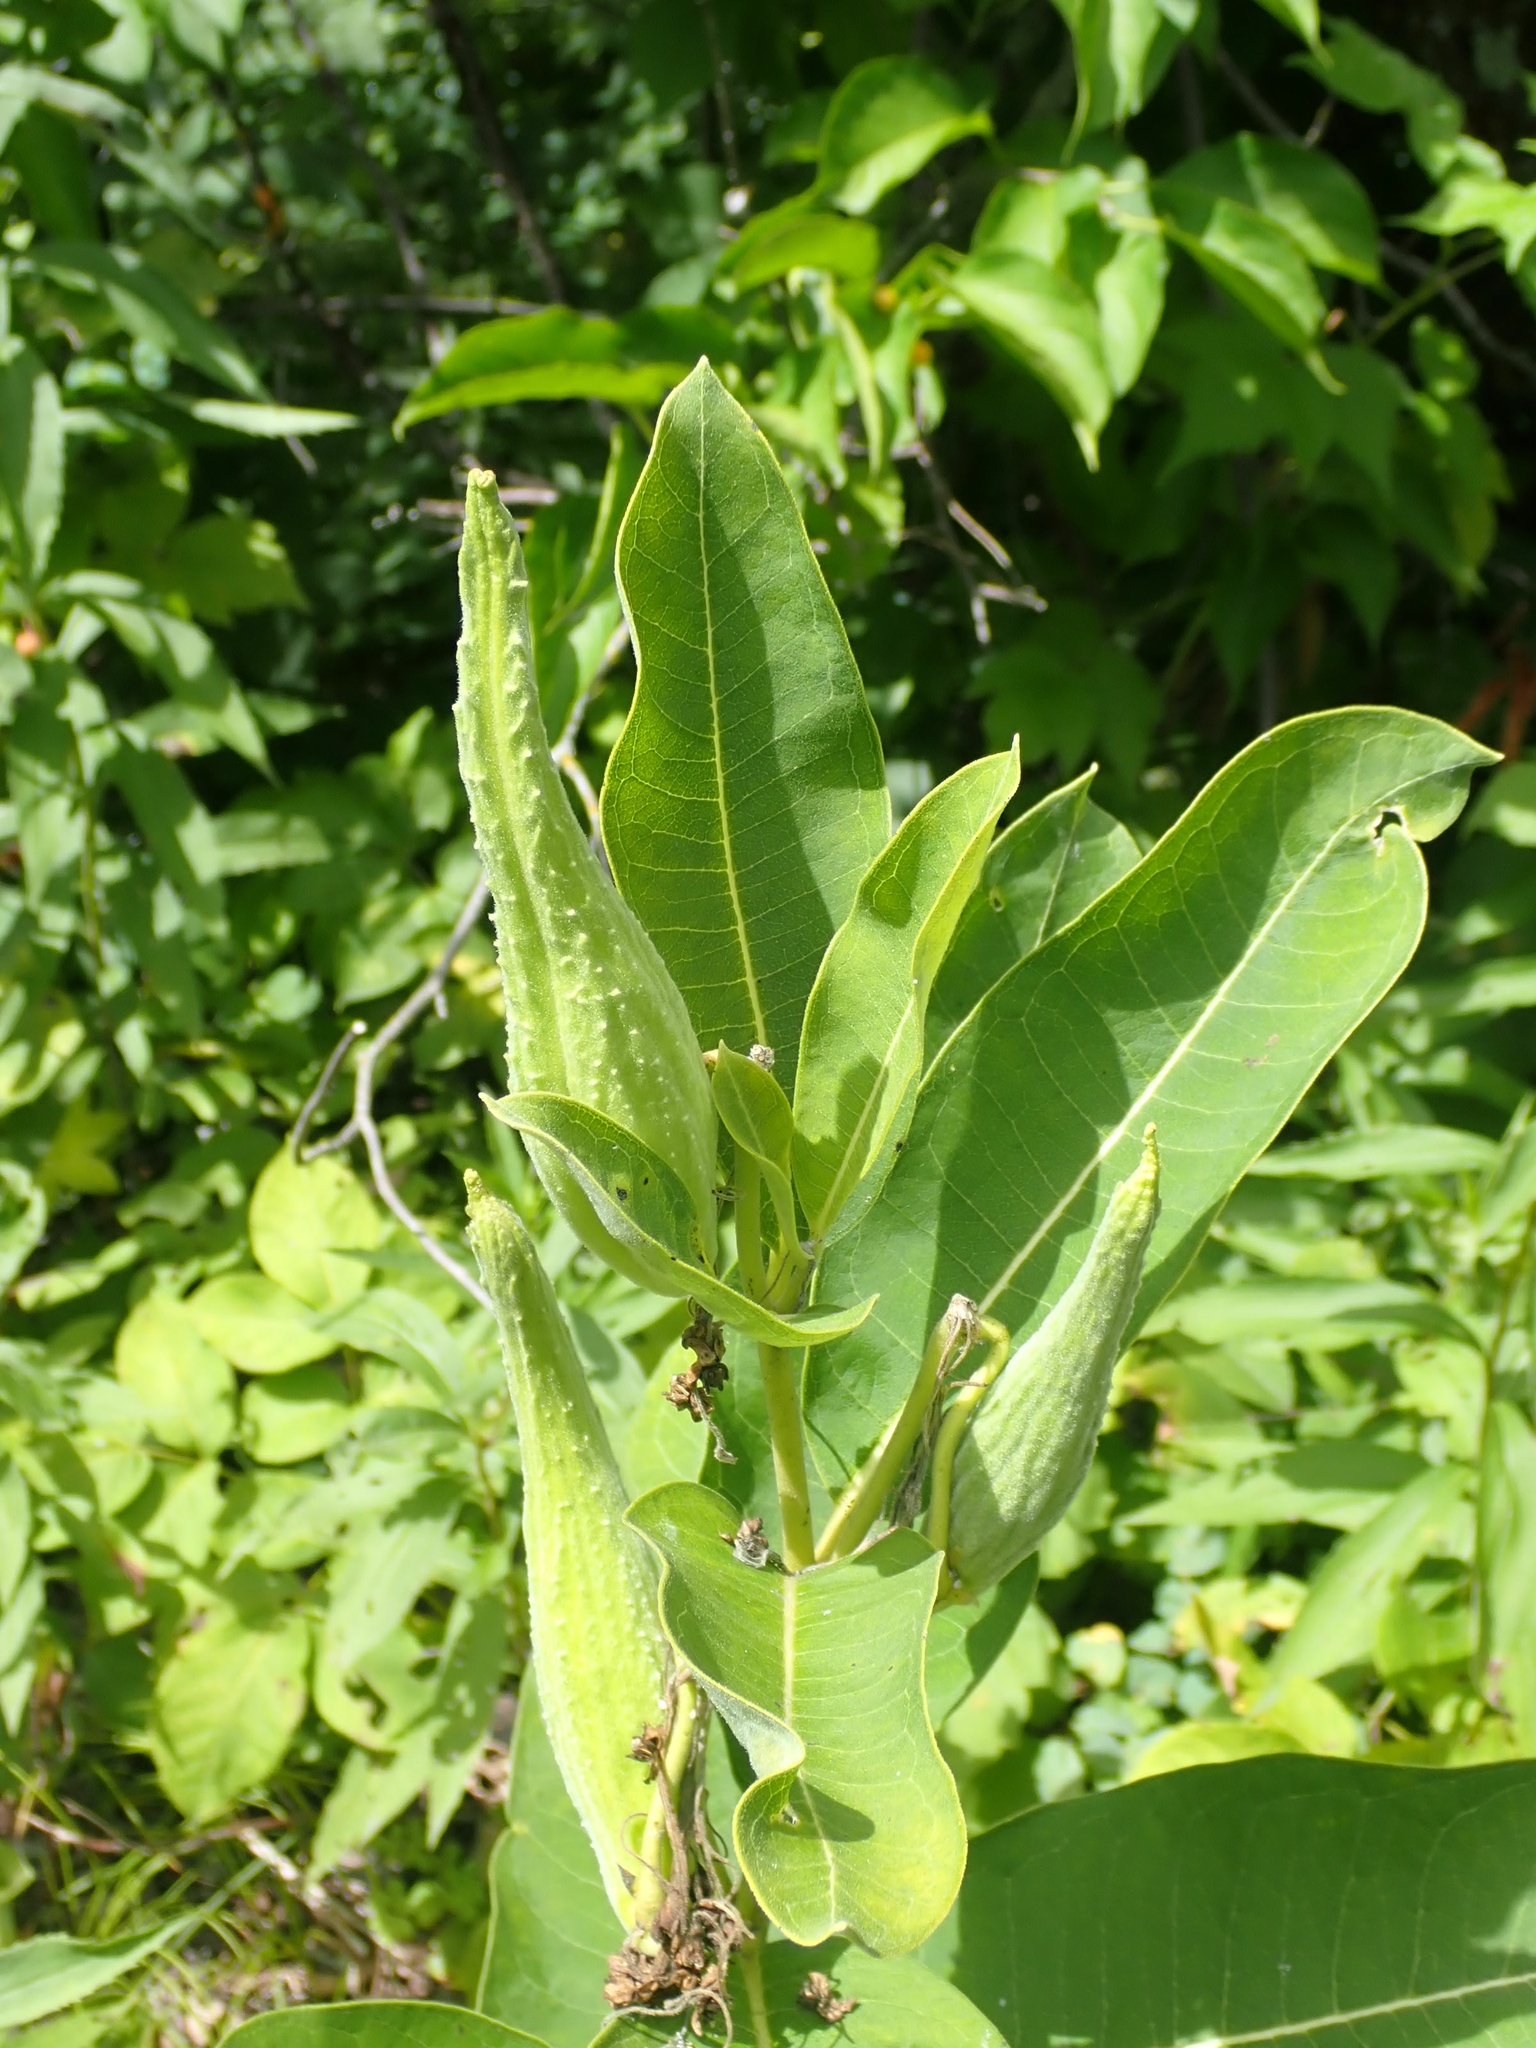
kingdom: Plantae
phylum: Tracheophyta
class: Magnoliopsida
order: Gentianales
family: Apocynaceae
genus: Asclepias
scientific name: Asclepias syriaca
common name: Common milkweed
